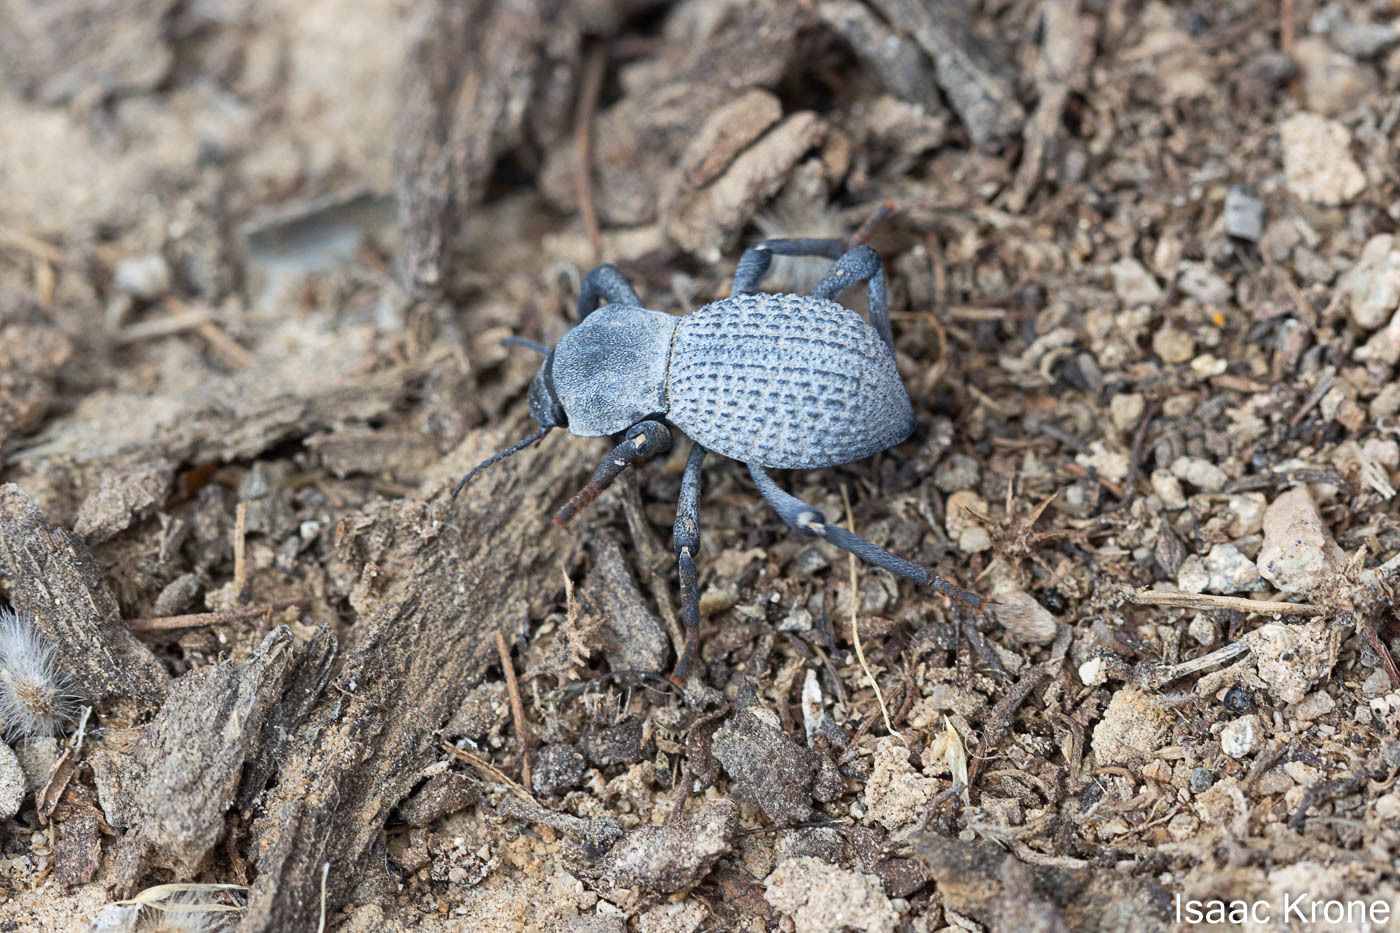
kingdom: Animalia
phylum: Arthropoda
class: Insecta
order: Coleoptera
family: Tenebrionidae
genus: Asbolus
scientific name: Asbolus verrucosus
